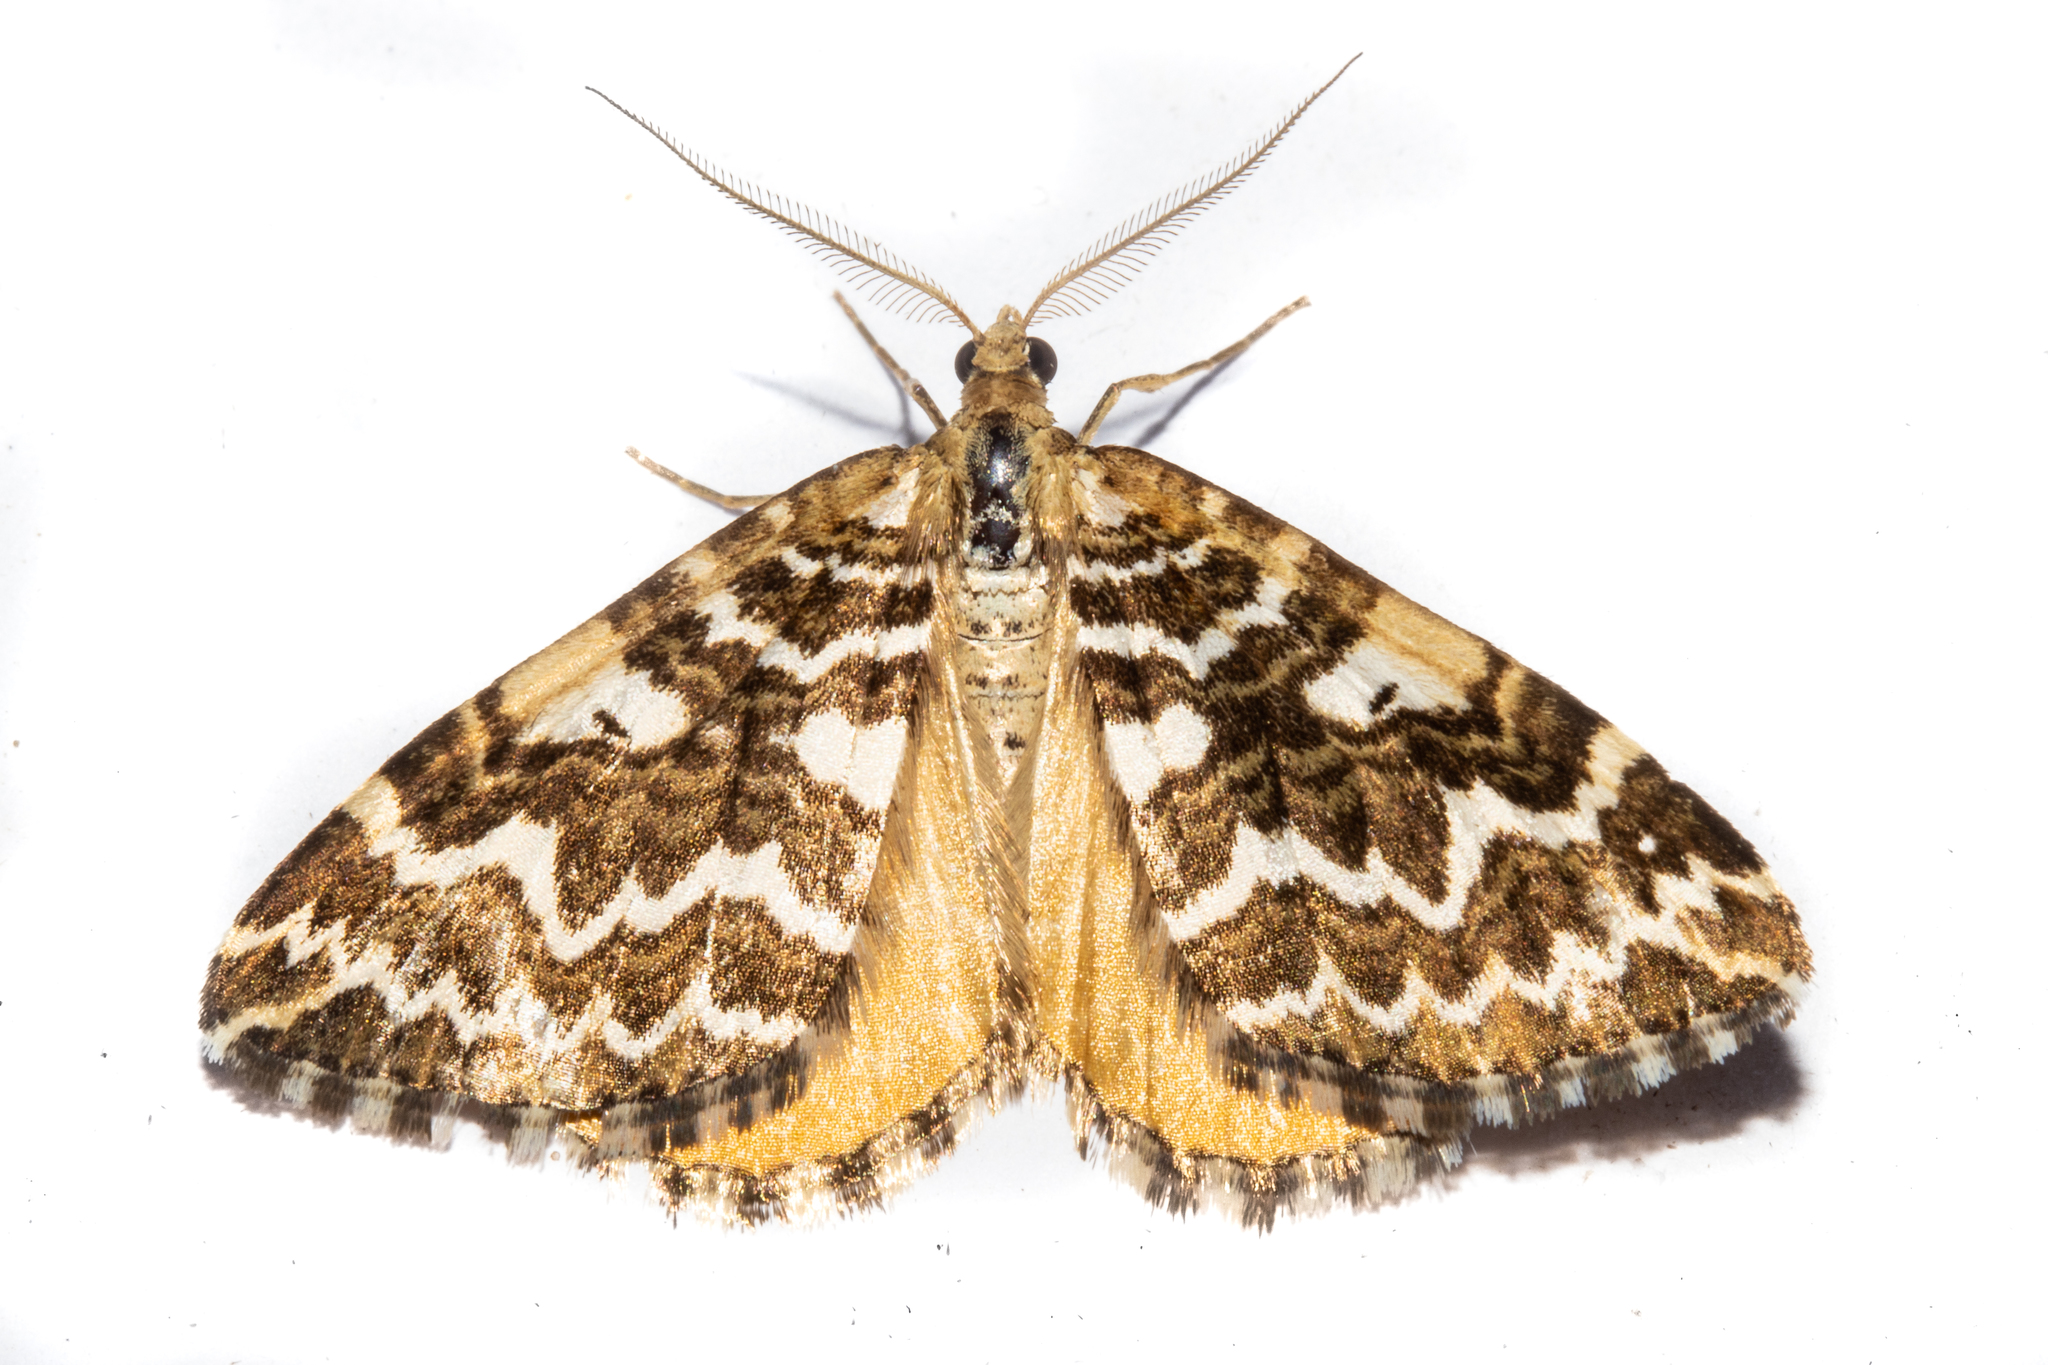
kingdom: Animalia
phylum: Arthropoda
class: Insecta
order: Lepidoptera
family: Geometridae
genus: Asaphodes
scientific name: Asaphodes clarata
